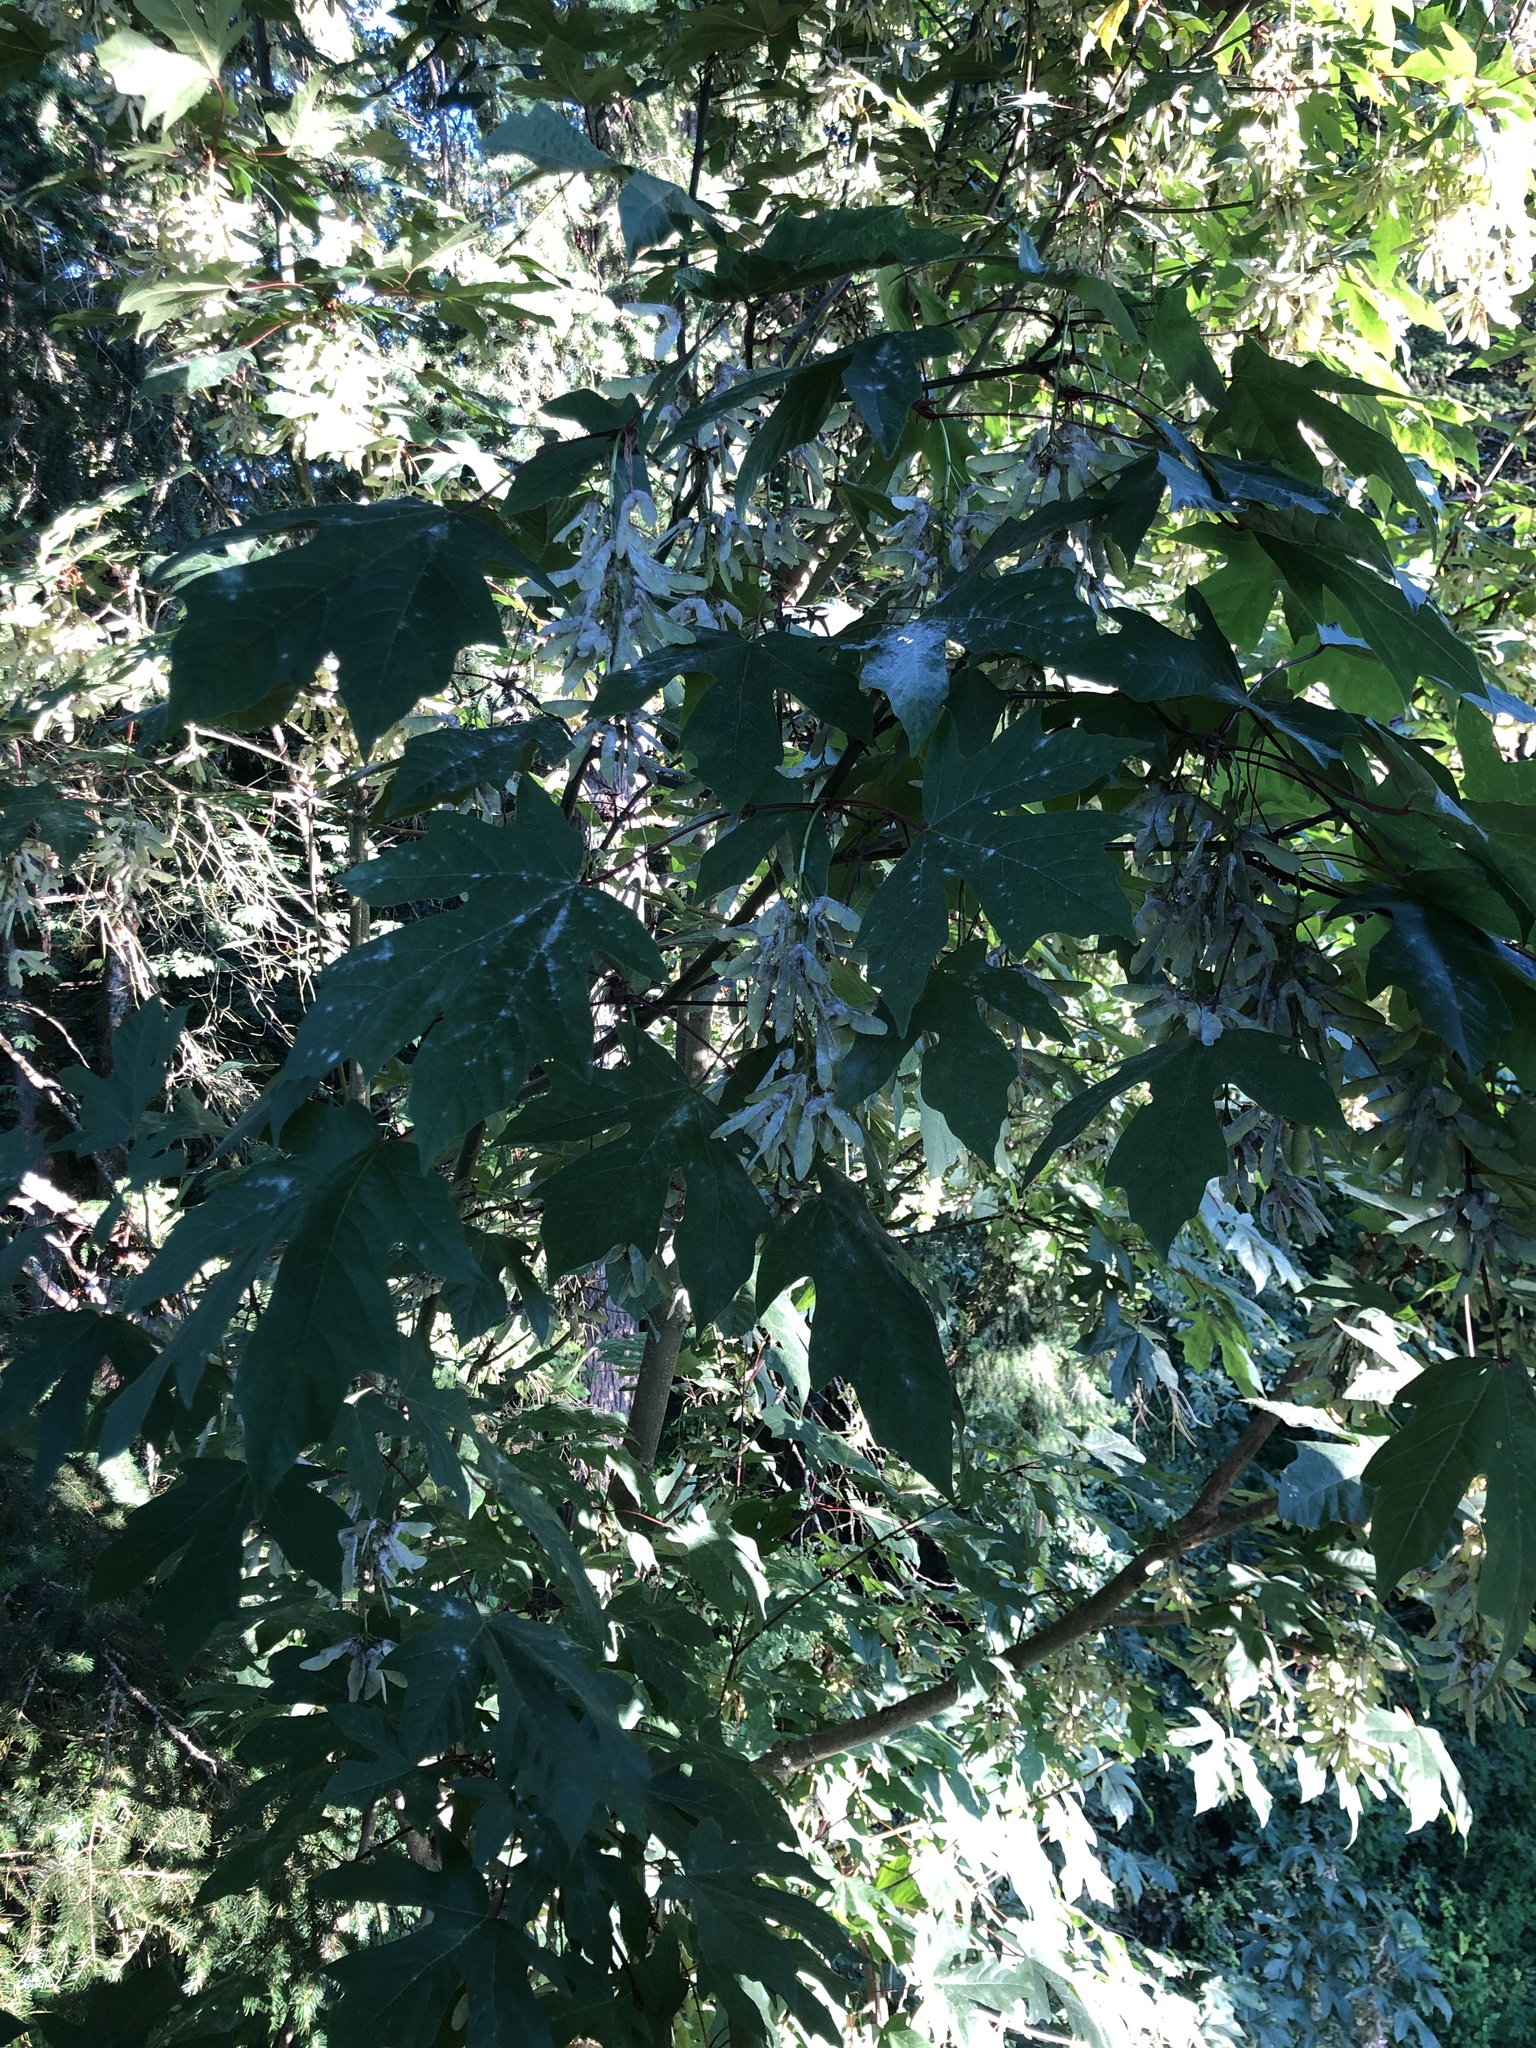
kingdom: Plantae
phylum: Tracheophyta
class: Magnoliopsida
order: Sapindales
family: Sapindaceae
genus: Acer
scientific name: Acer macrophyllum
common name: Oregon maple
